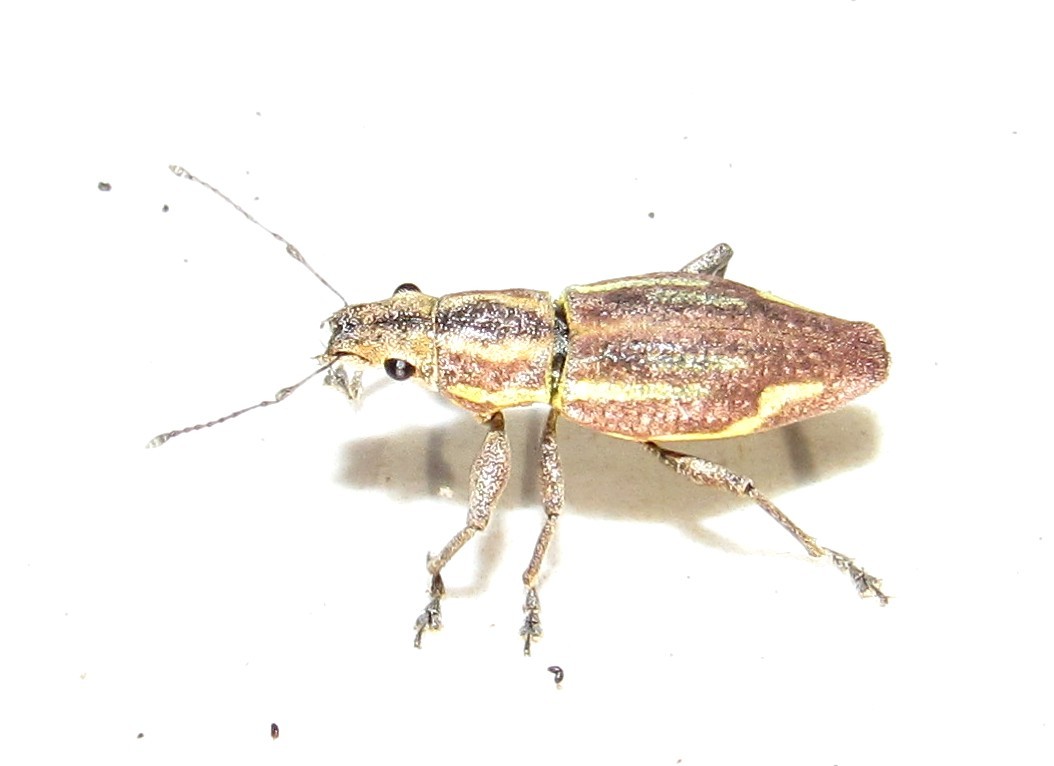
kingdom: Animalia
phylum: Arthropoda
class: Insecta
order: Coleoptera
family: Curculionidae
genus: Naupactus
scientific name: Naupactus navicularis
